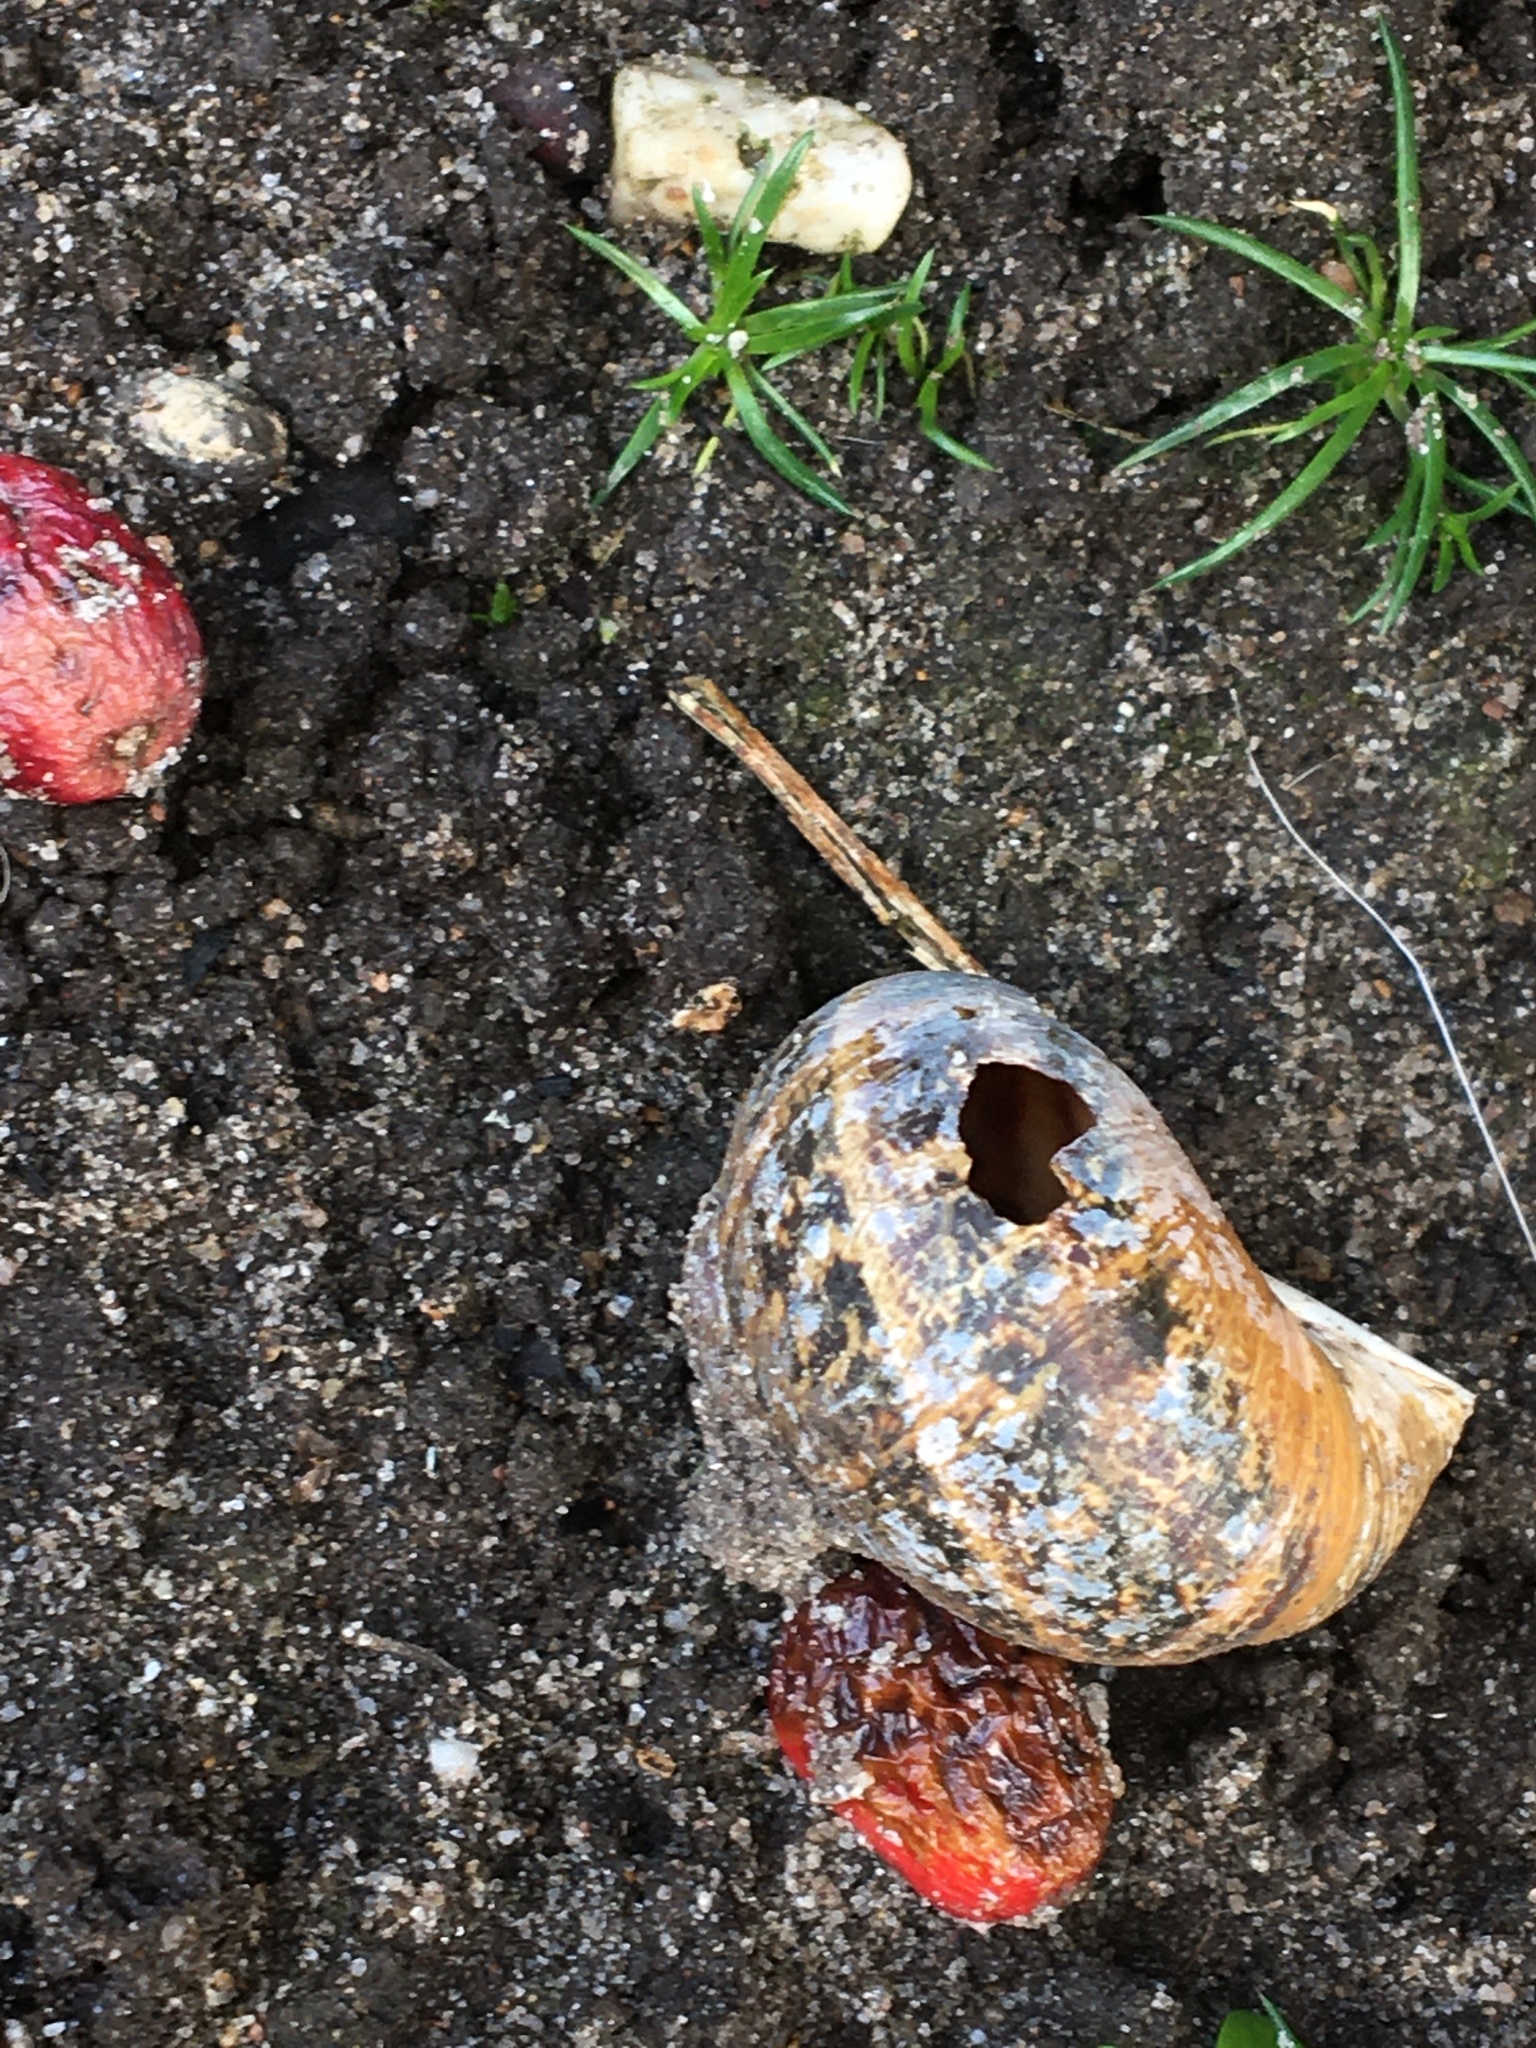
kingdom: Animalia
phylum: Mollusca
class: Gastropoda
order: Stylommatophora
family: Helicidae
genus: Cornu
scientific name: Cornu aspersum
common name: Brown garden snail
